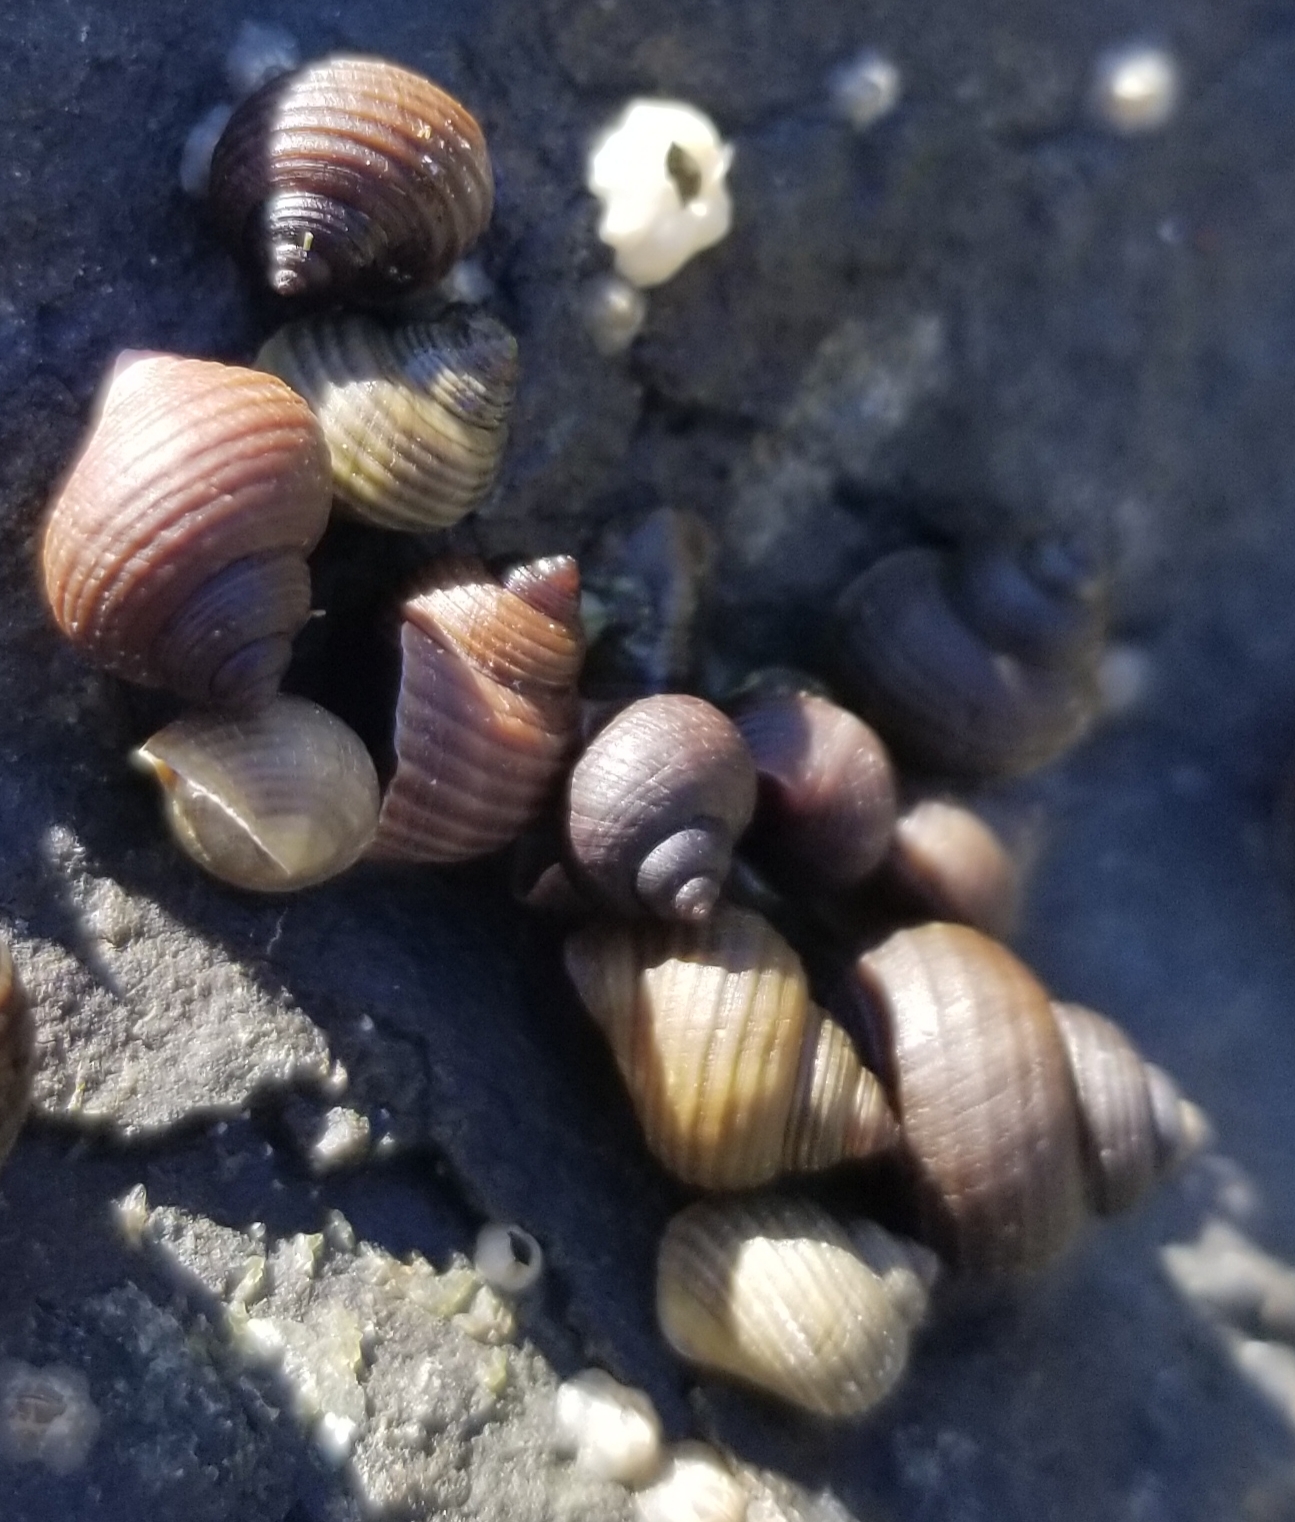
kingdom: Animalia
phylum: Mollusca
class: Gastropoda
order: Littorinimorpha
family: Littorinidae
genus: Littorina
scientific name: Littorina saxatilis
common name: Black-lined periwinkle
